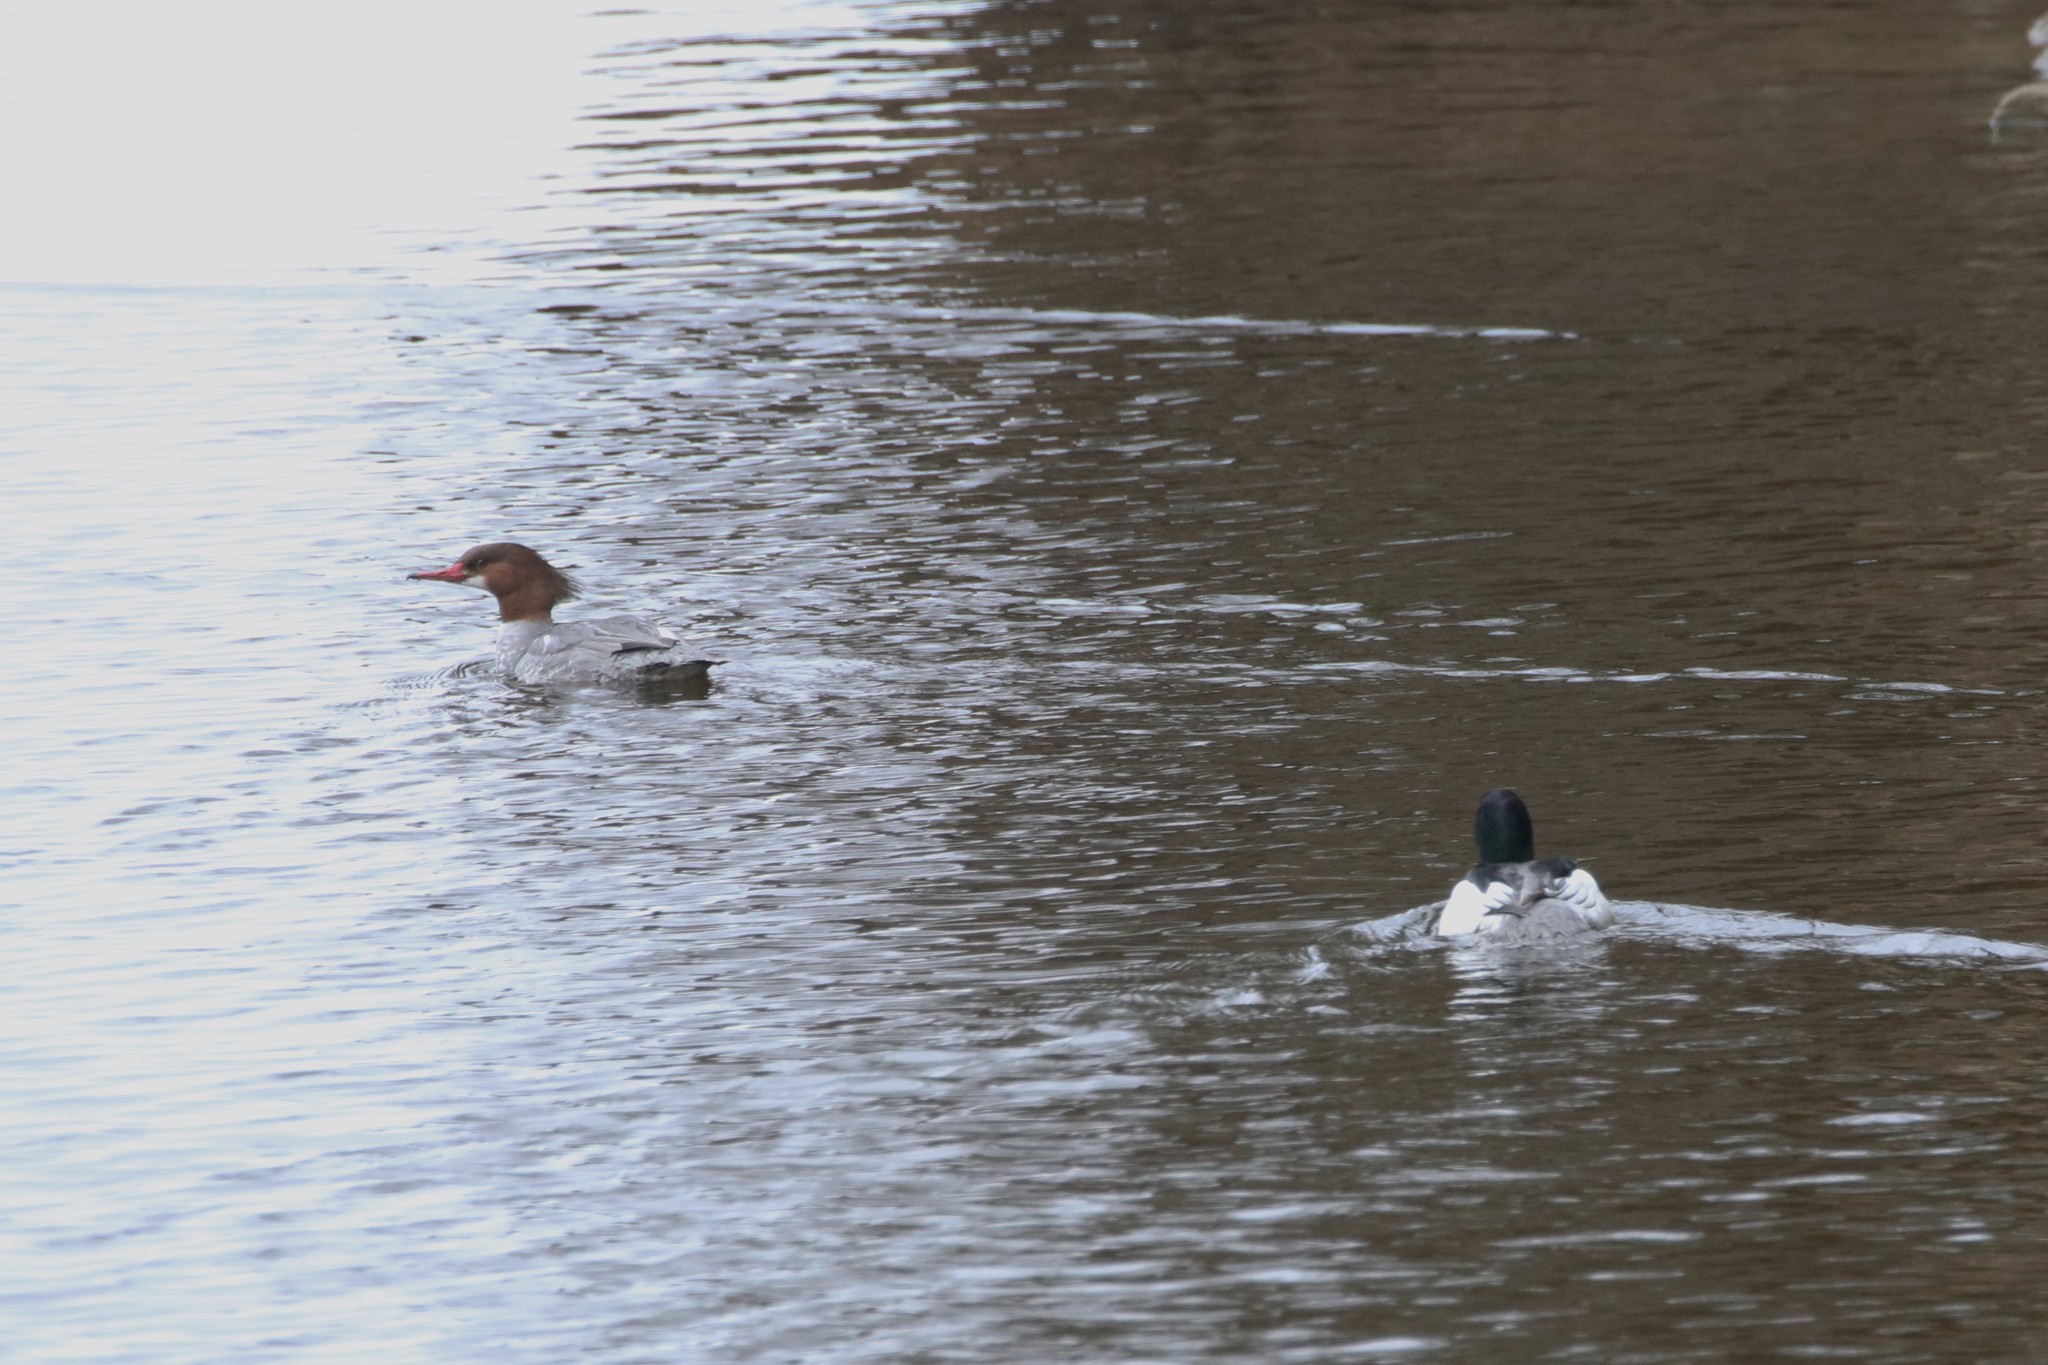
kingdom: Animalia
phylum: Chordata
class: Aves
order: Anseriformes
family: Anatidae
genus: Mergus
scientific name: Mergus merganser
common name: Common merganser
